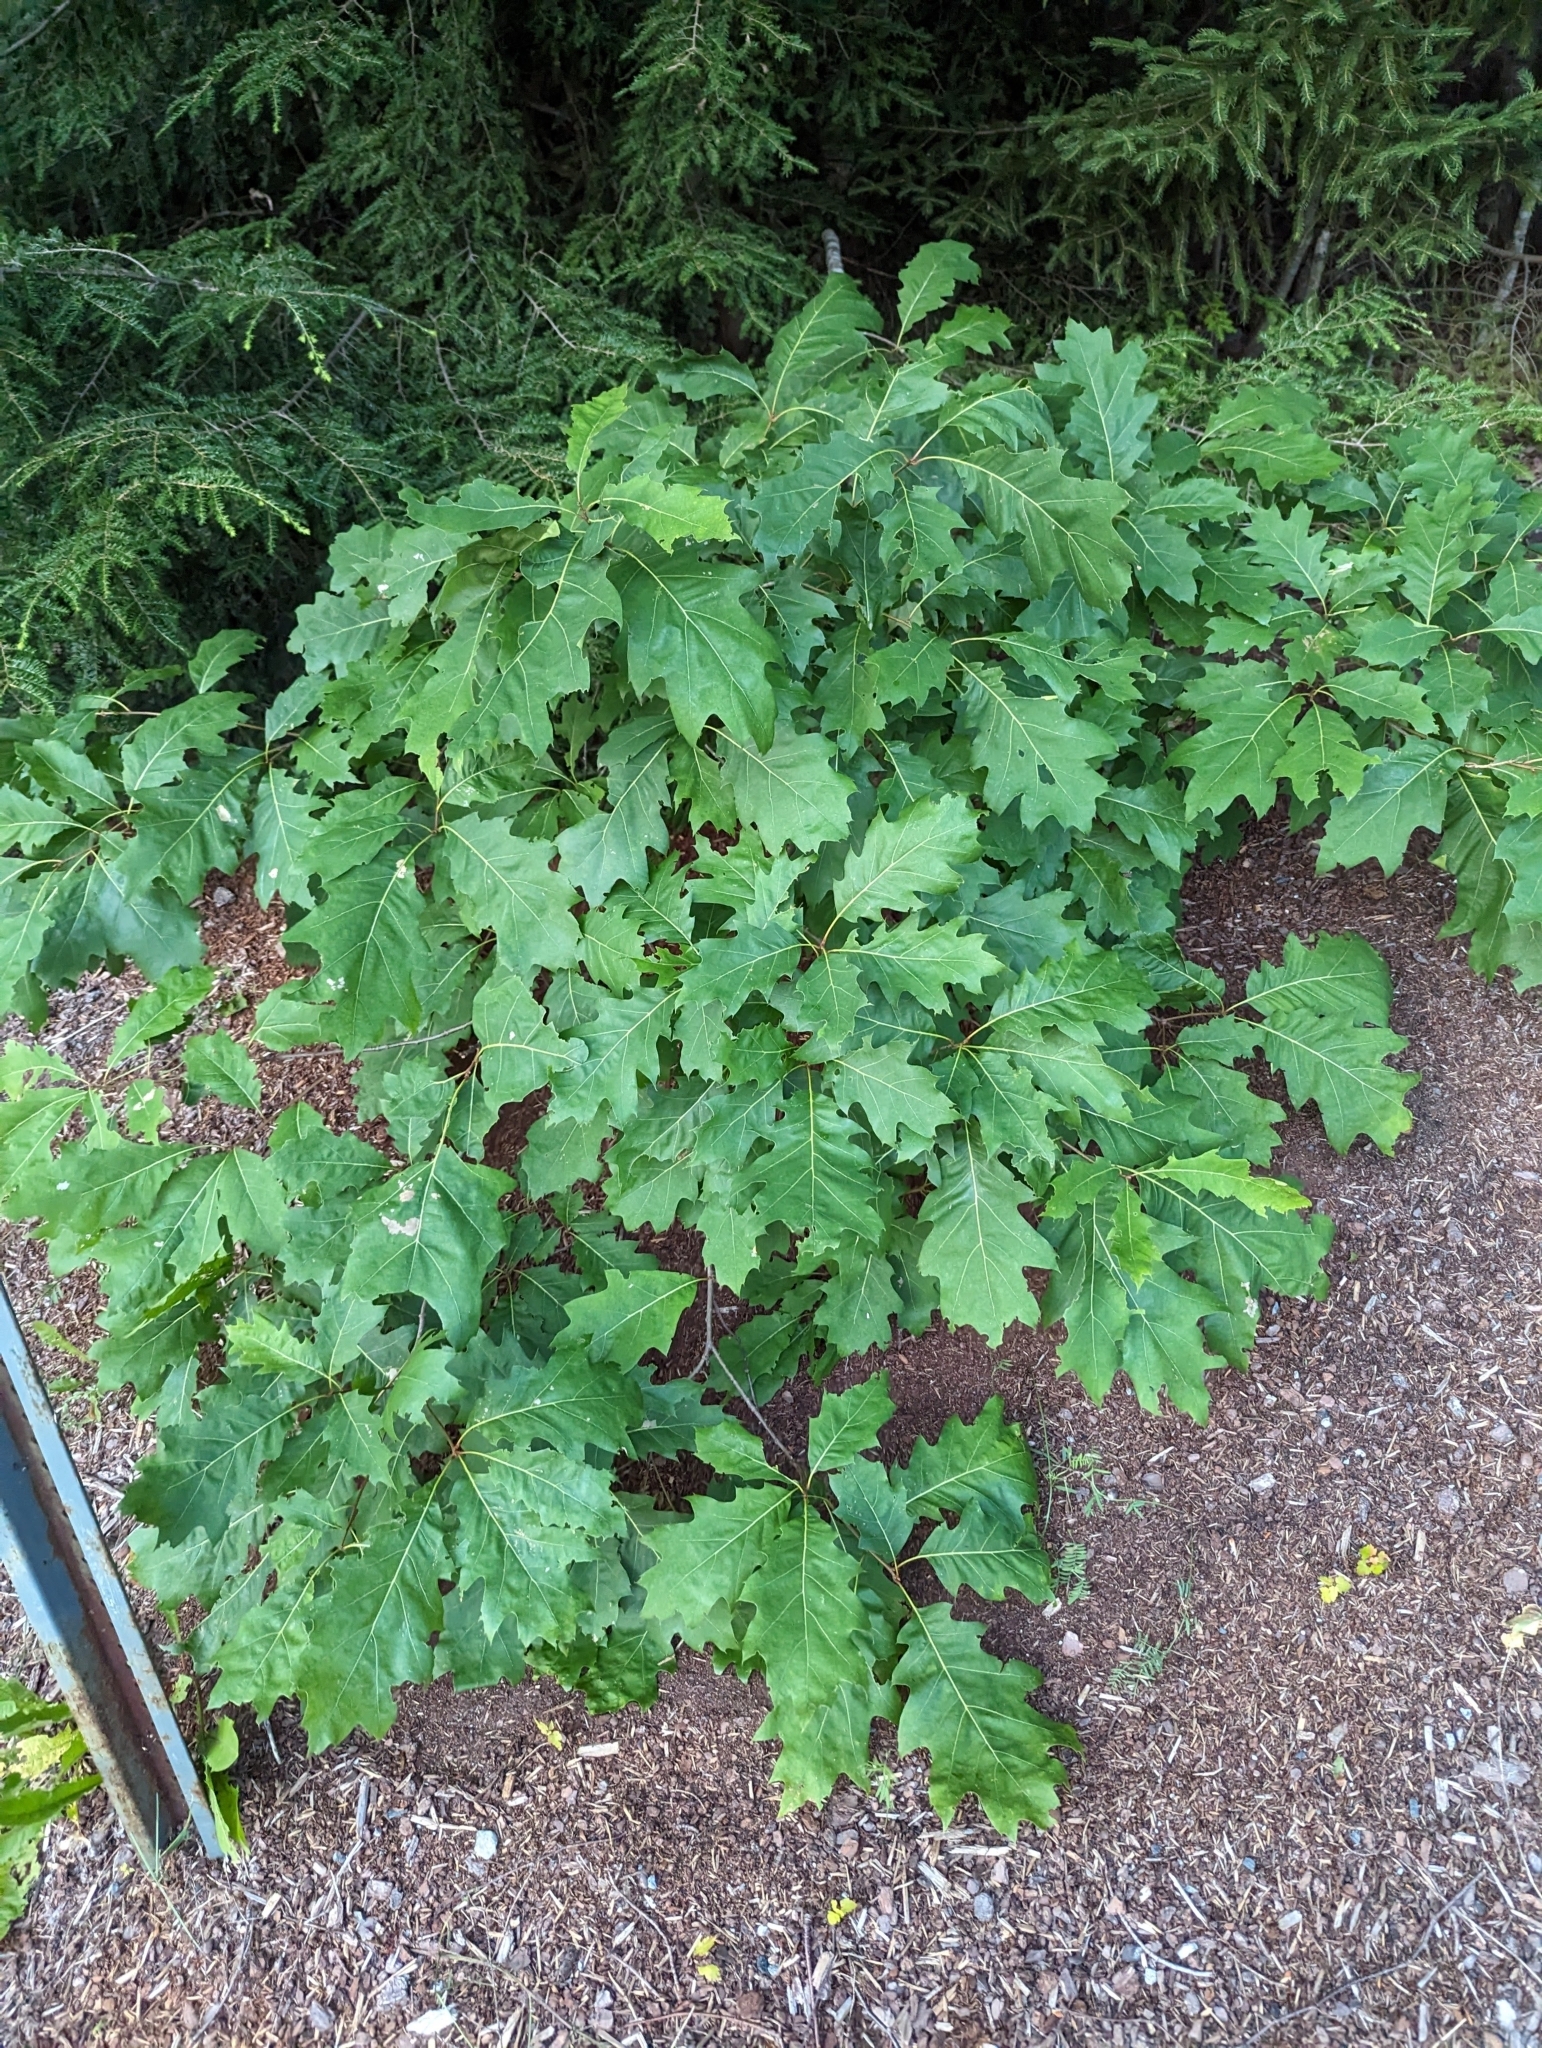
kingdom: Plantae
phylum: Tracheophyta
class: Magnoliopsida
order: Fagales
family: Fagaceae
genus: Quercus
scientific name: Quercus rubra
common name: Red oak
